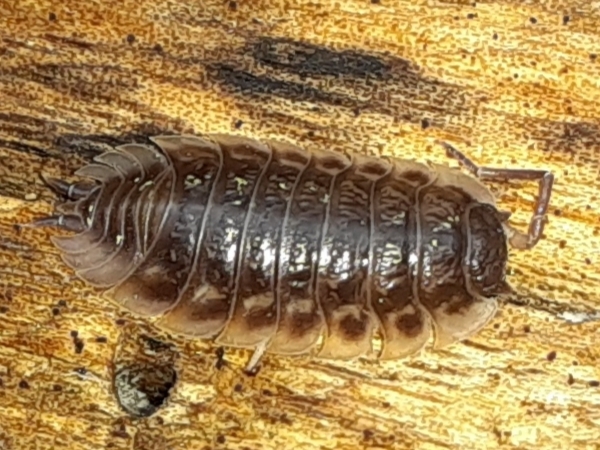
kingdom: Animalia
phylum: Arthropoda
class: Malacostraca
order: Isopoda
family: Oniscidae
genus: Oniscus
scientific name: Oniscus asellus
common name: Common shiny woodlouse
